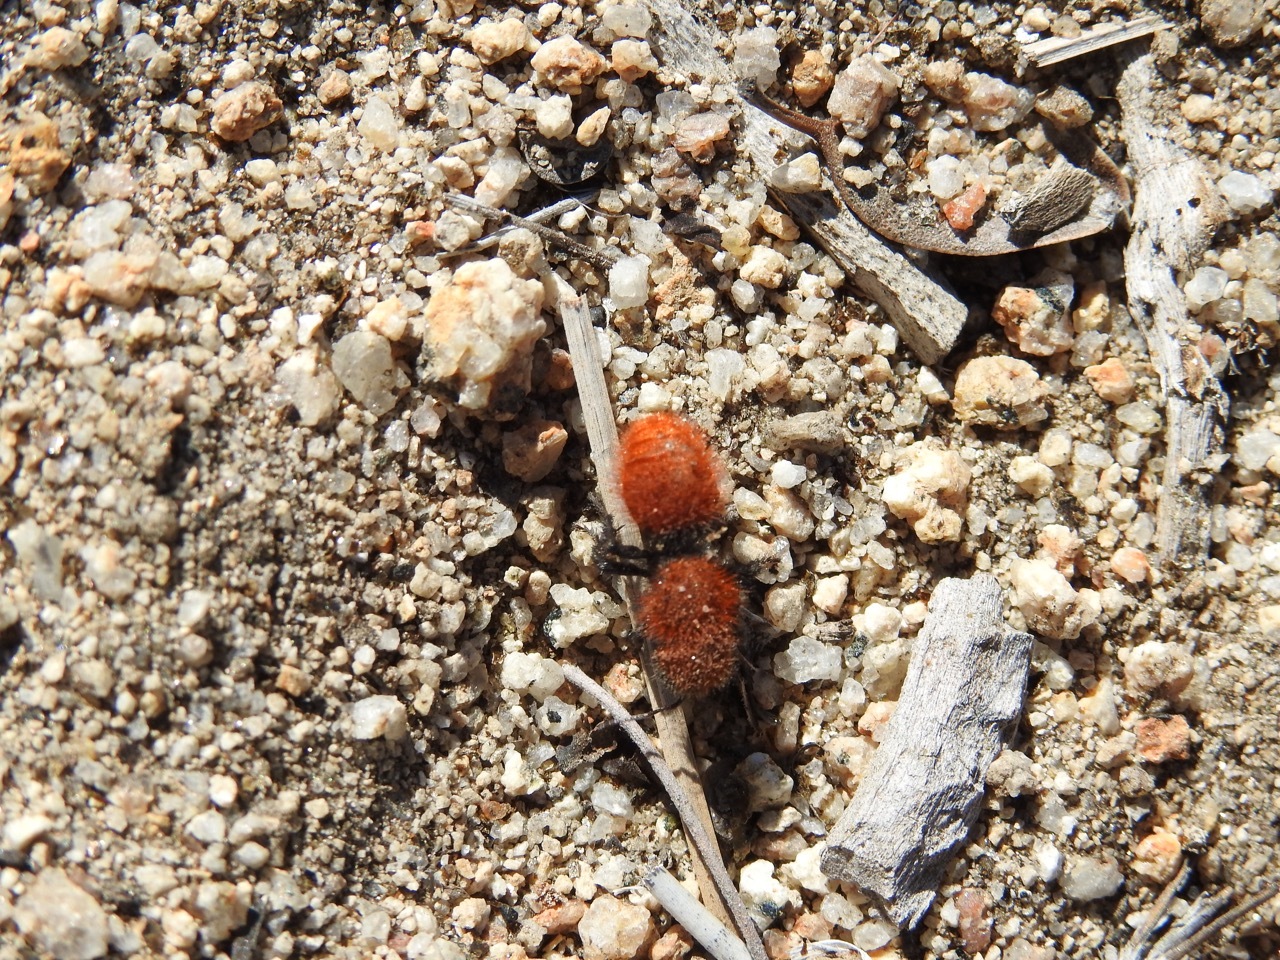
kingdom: Animalia
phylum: Arthropoda
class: Insecta
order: Hymenoptera
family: Mutillidae
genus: Dasymutilla
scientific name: Dasymutilla
